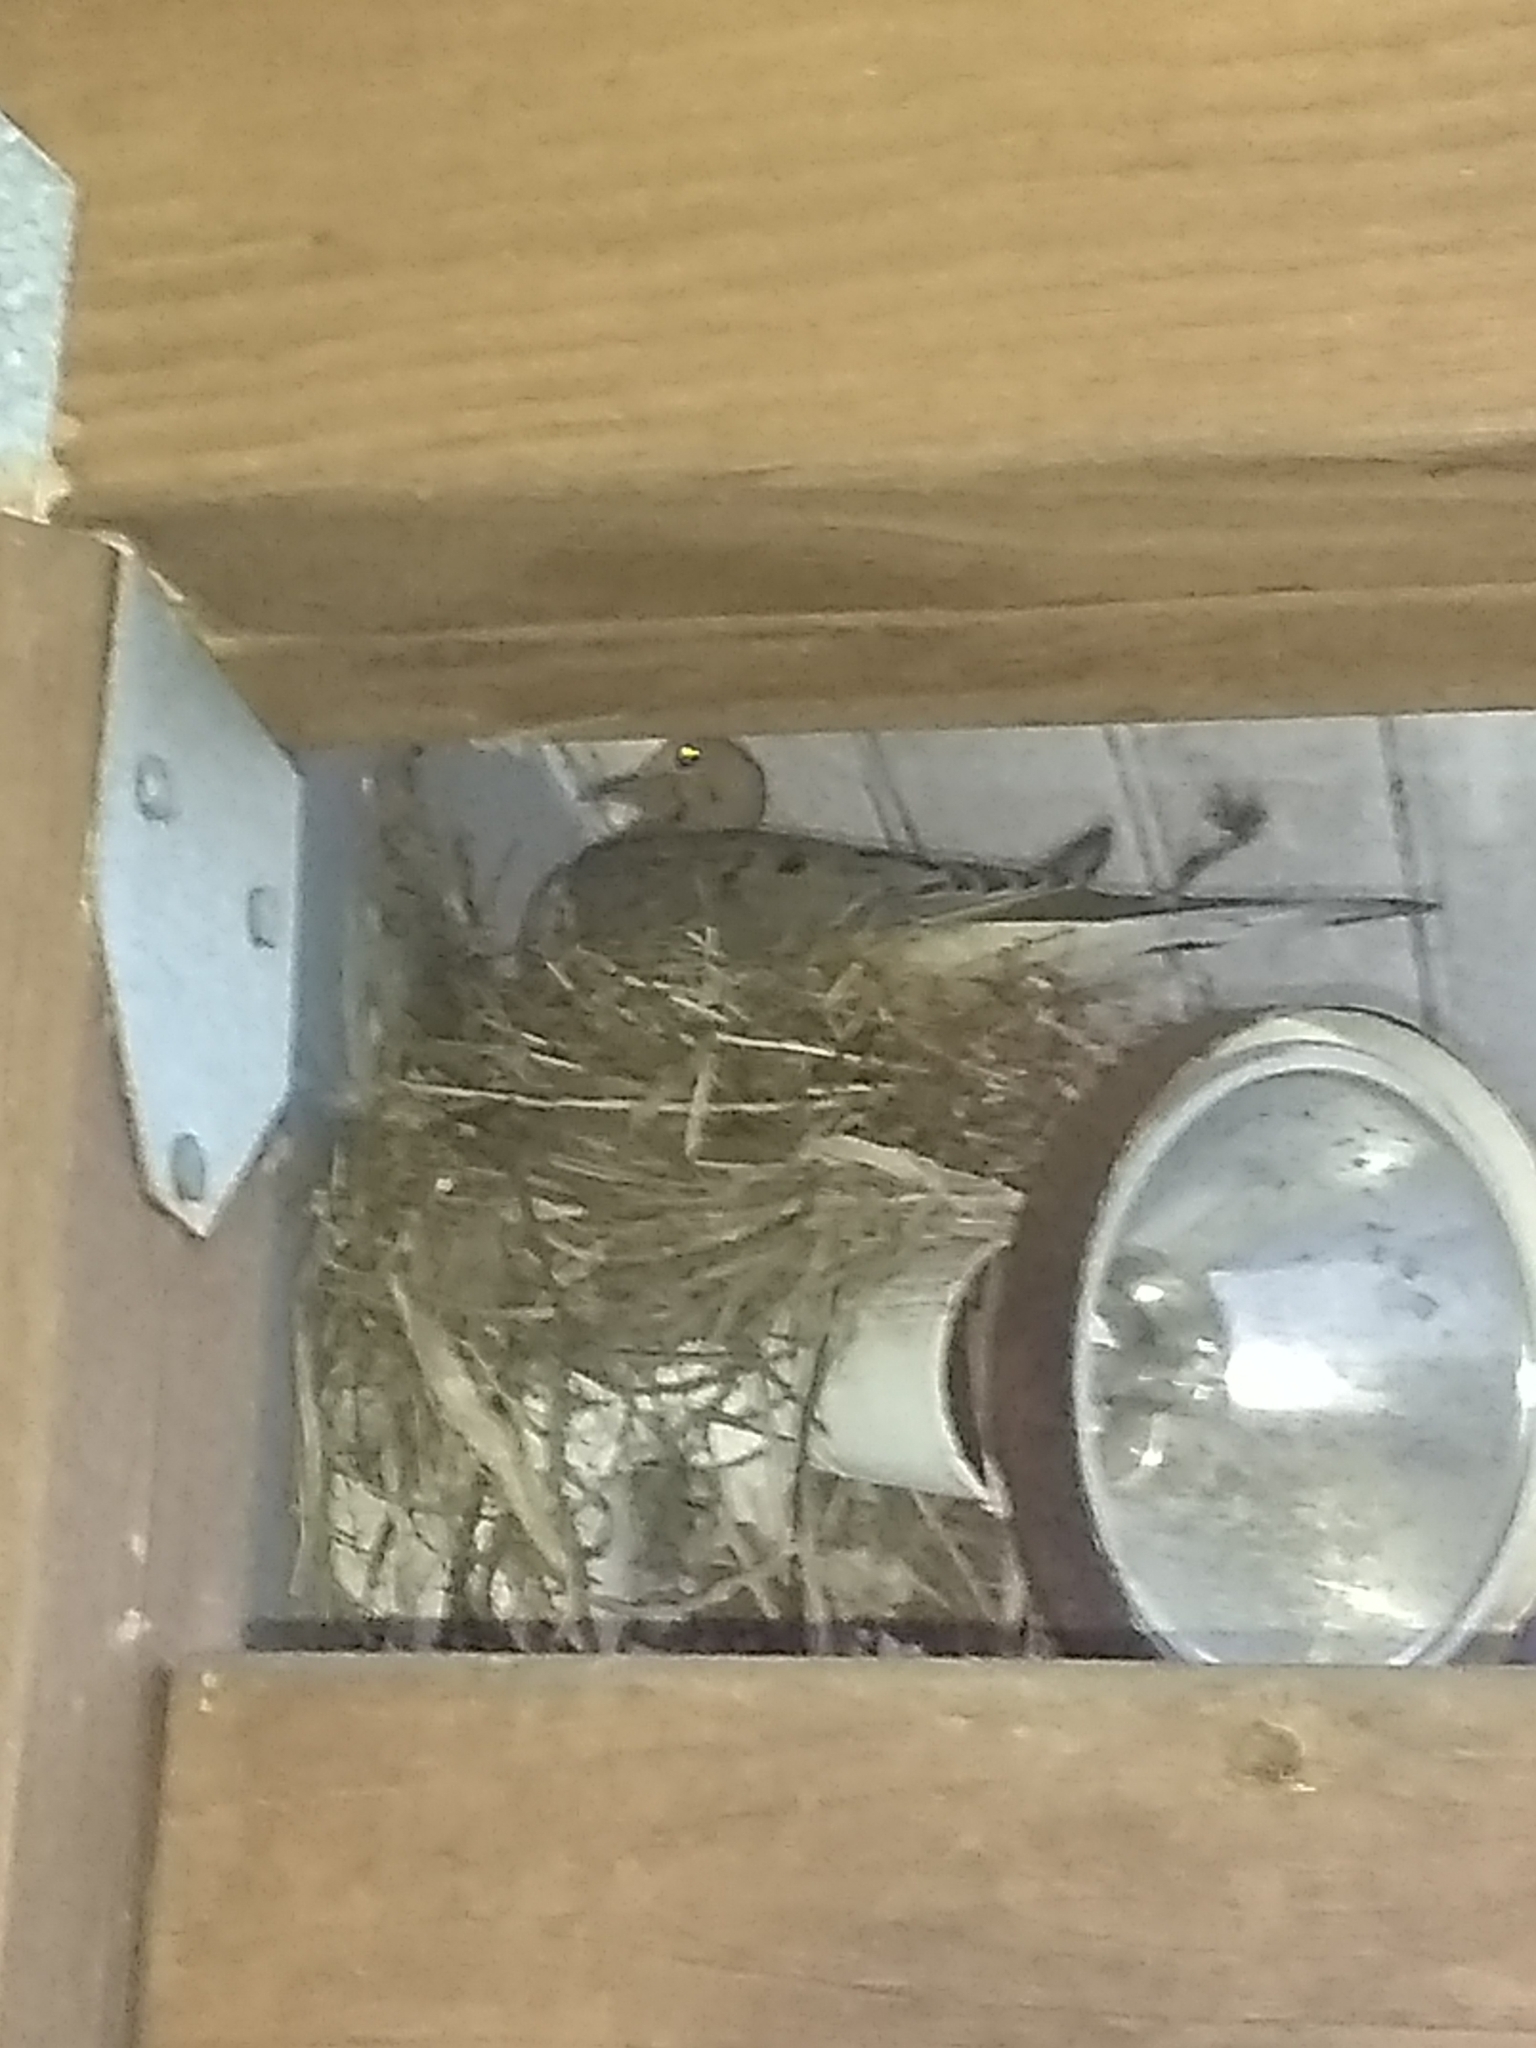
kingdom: Animalia
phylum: Chordata
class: Aves
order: Columbiformes
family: Columbidae
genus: Zenaida
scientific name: Zenaida macroura
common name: Mourning dove
